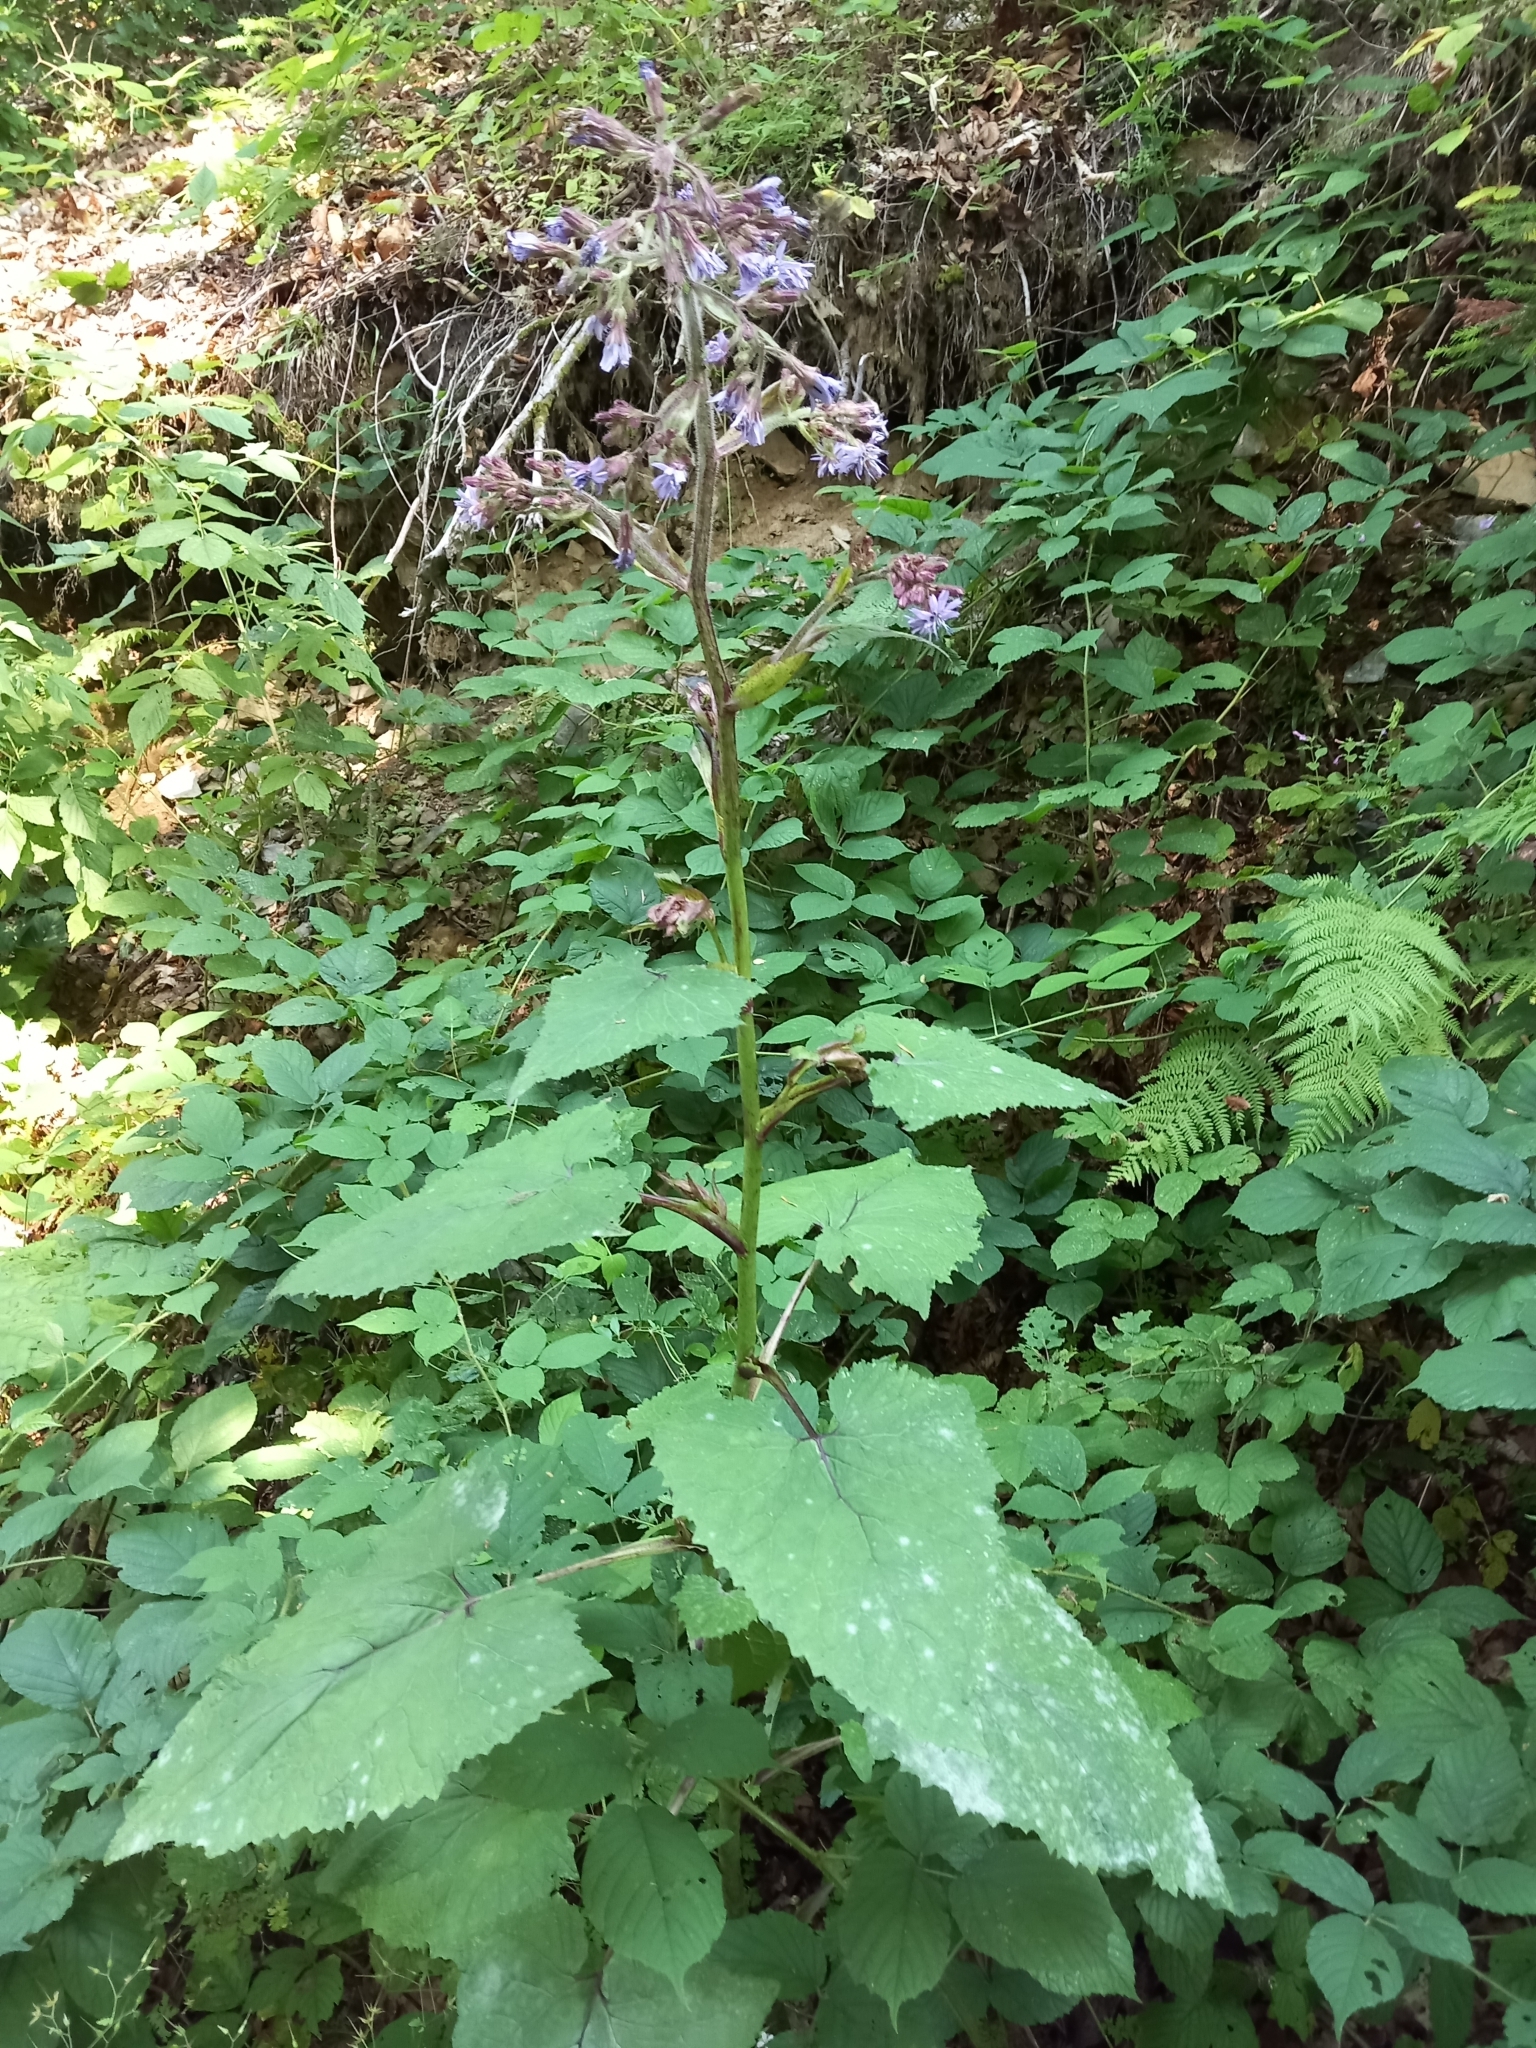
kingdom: Plantae
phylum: Tracheophyta
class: Magnoliopsida
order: Asterales
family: Asteraceae
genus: Cicerbita
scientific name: Cicerbita petiolata
